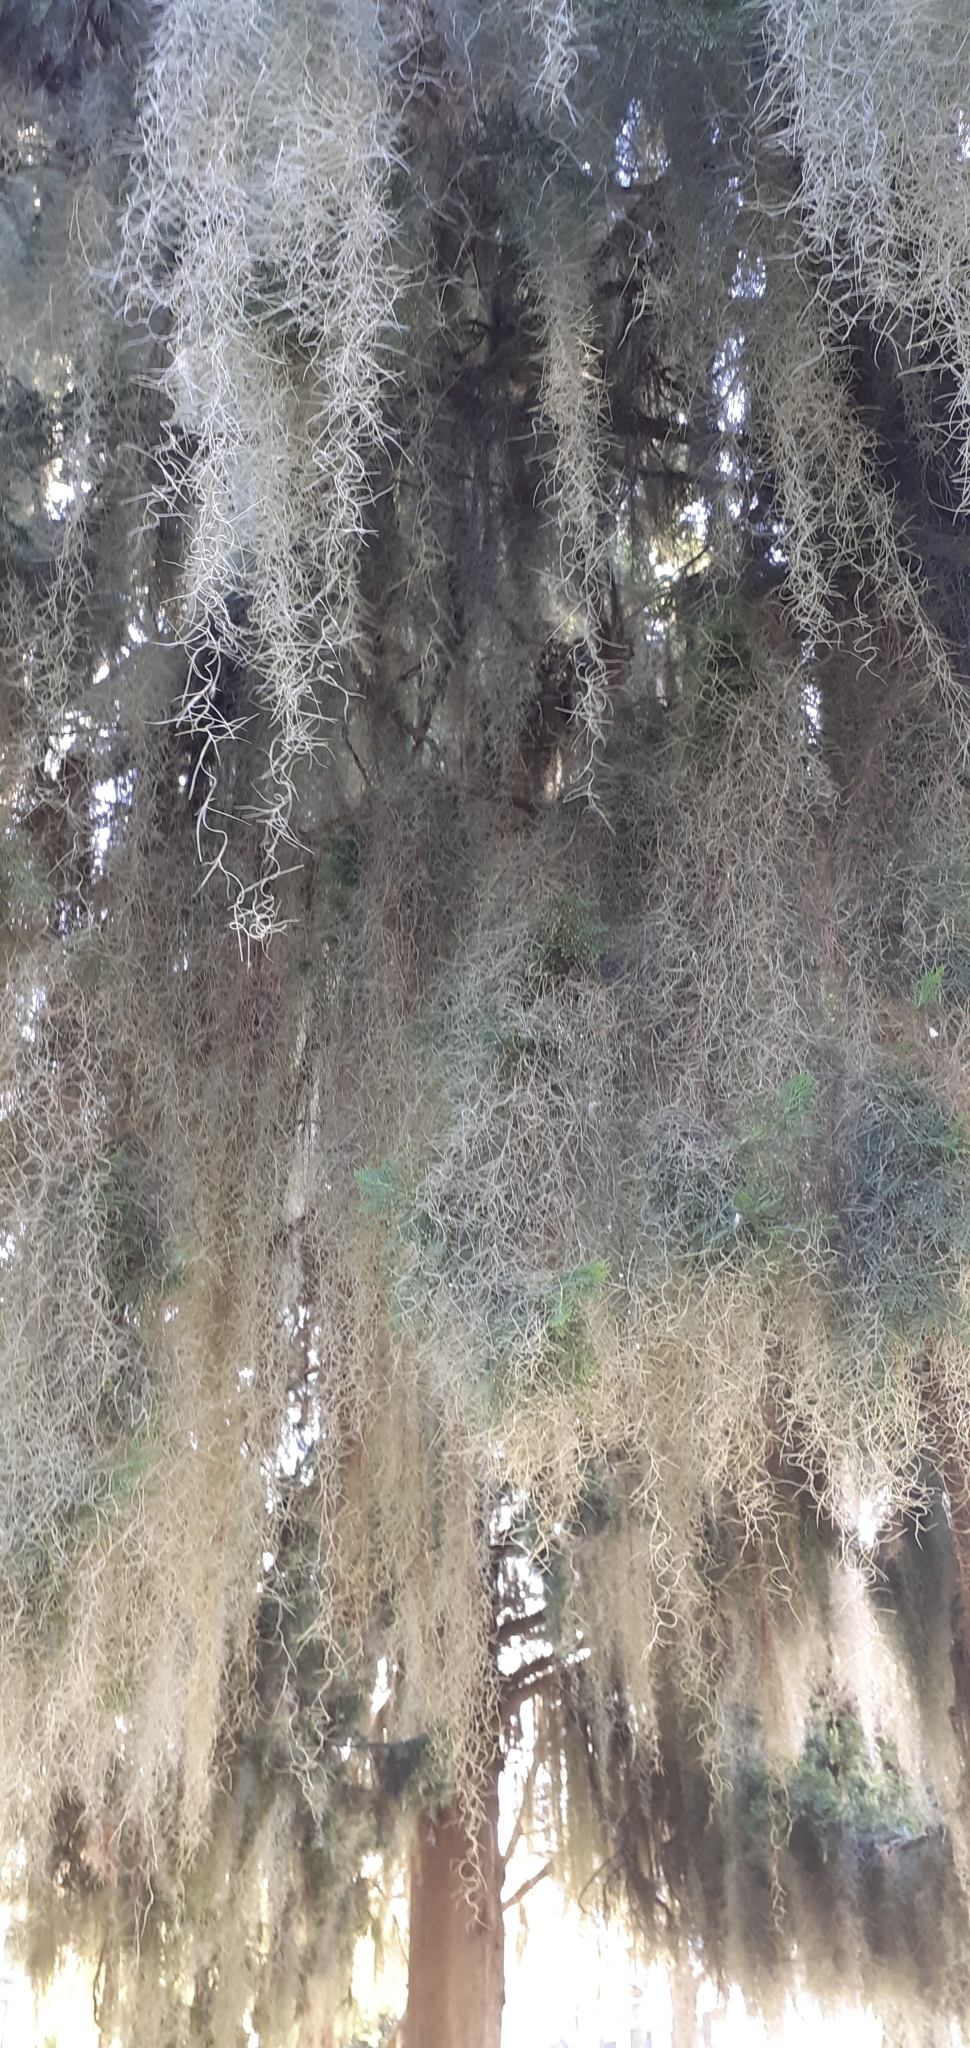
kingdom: Plantae
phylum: Tracheophyta
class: Liliopsida
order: Poales
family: Bromeliaceae
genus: Tillandsia
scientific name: Tillandsia usneoides
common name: Spanish moss
